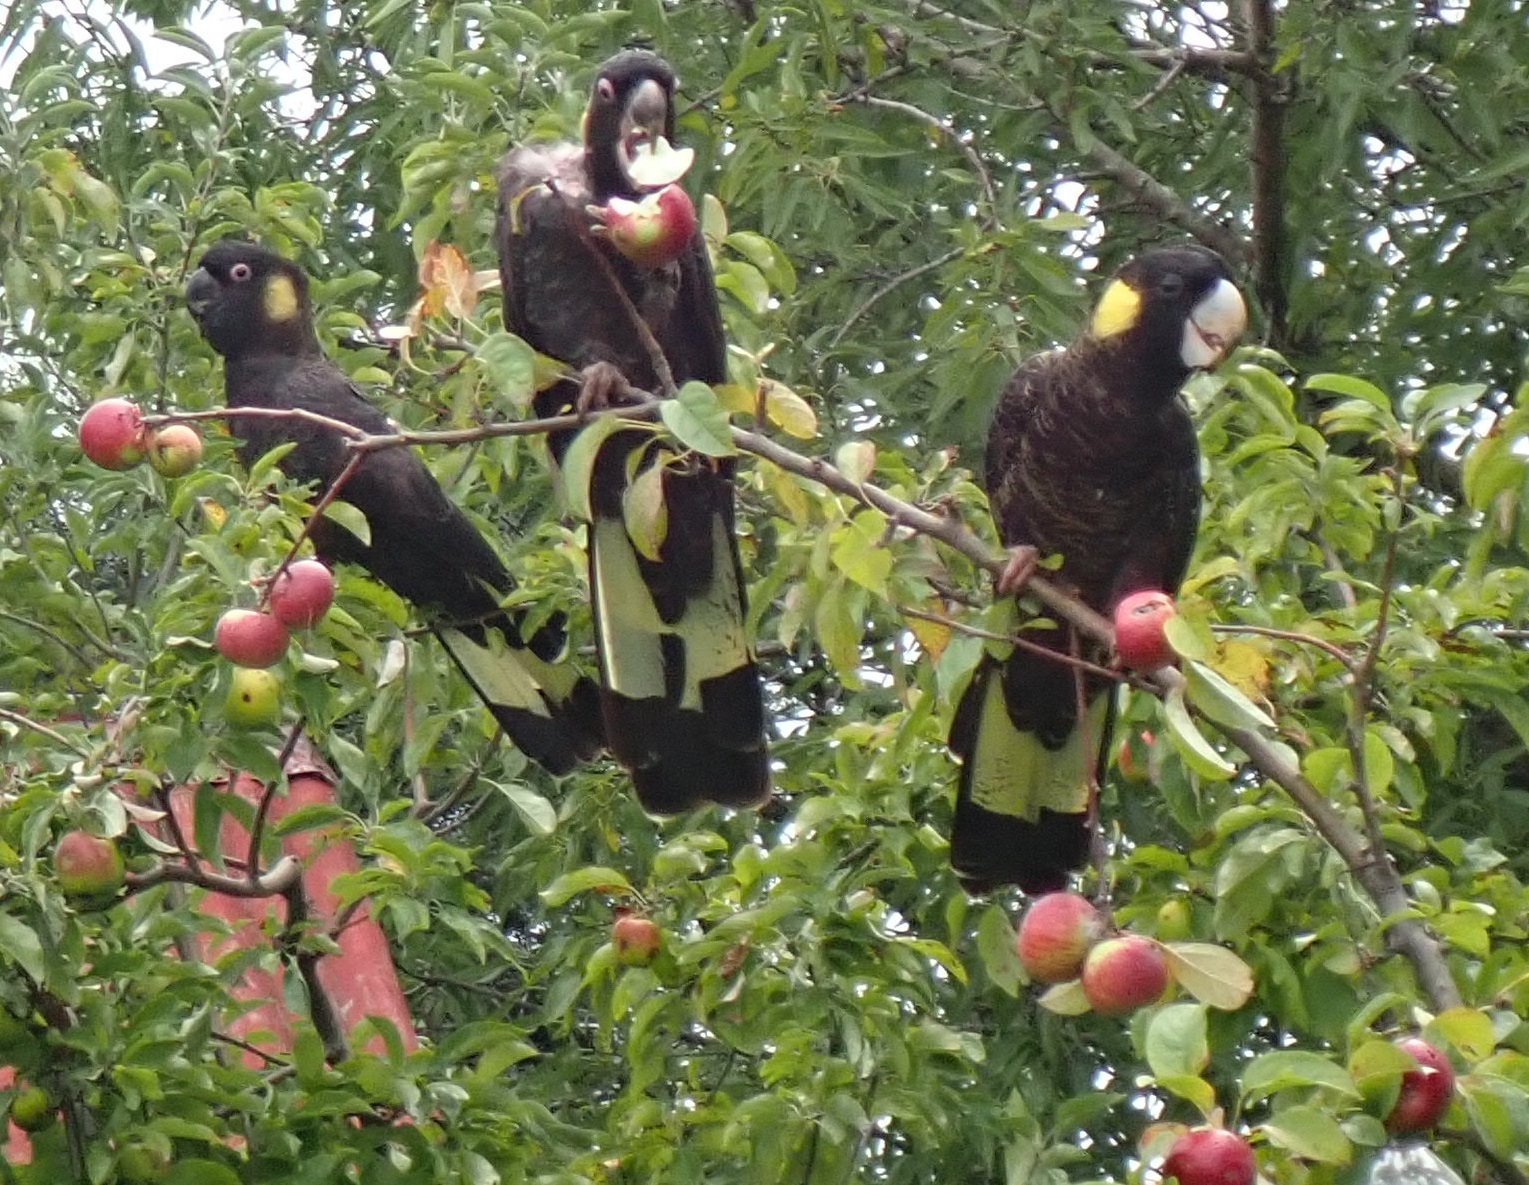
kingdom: Animalia
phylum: Chordata
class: Aves
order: Psittaciformes
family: Cacatuidae
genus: Zanda
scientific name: Zanda funerea
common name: Yellow-tailed black-cockatoo
